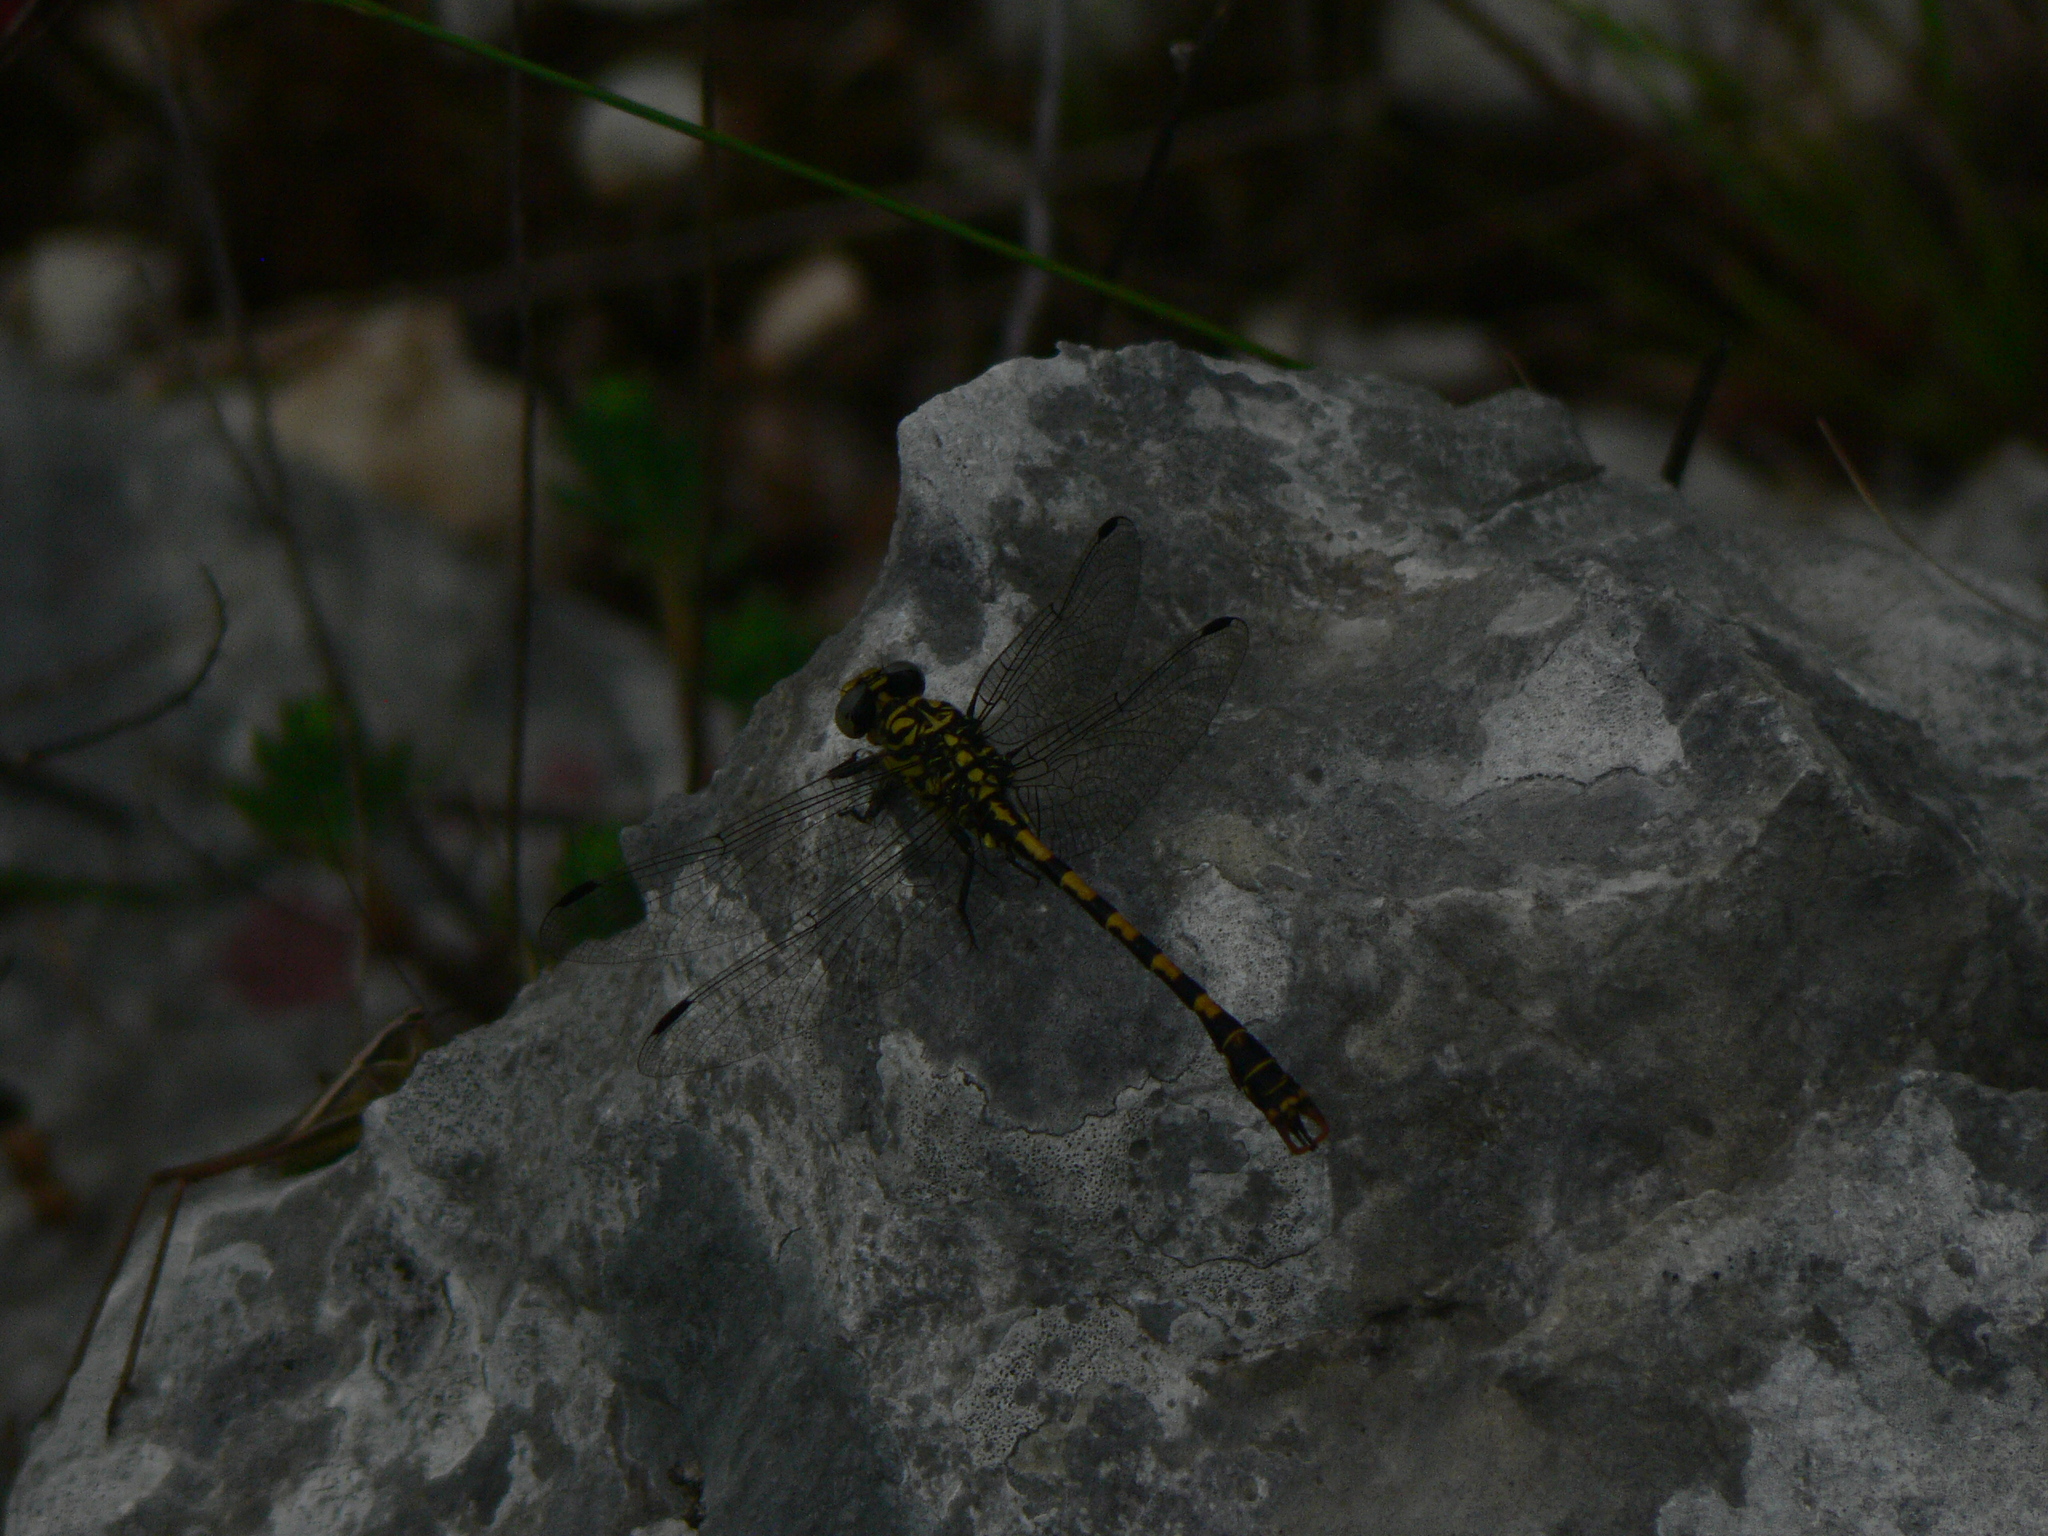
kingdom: Animalia
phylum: Arthropoda
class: Insecta
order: Odonata
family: Gomphidae
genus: Onychogomphus
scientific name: Onychogomphus forcipatus
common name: Small pincertail
